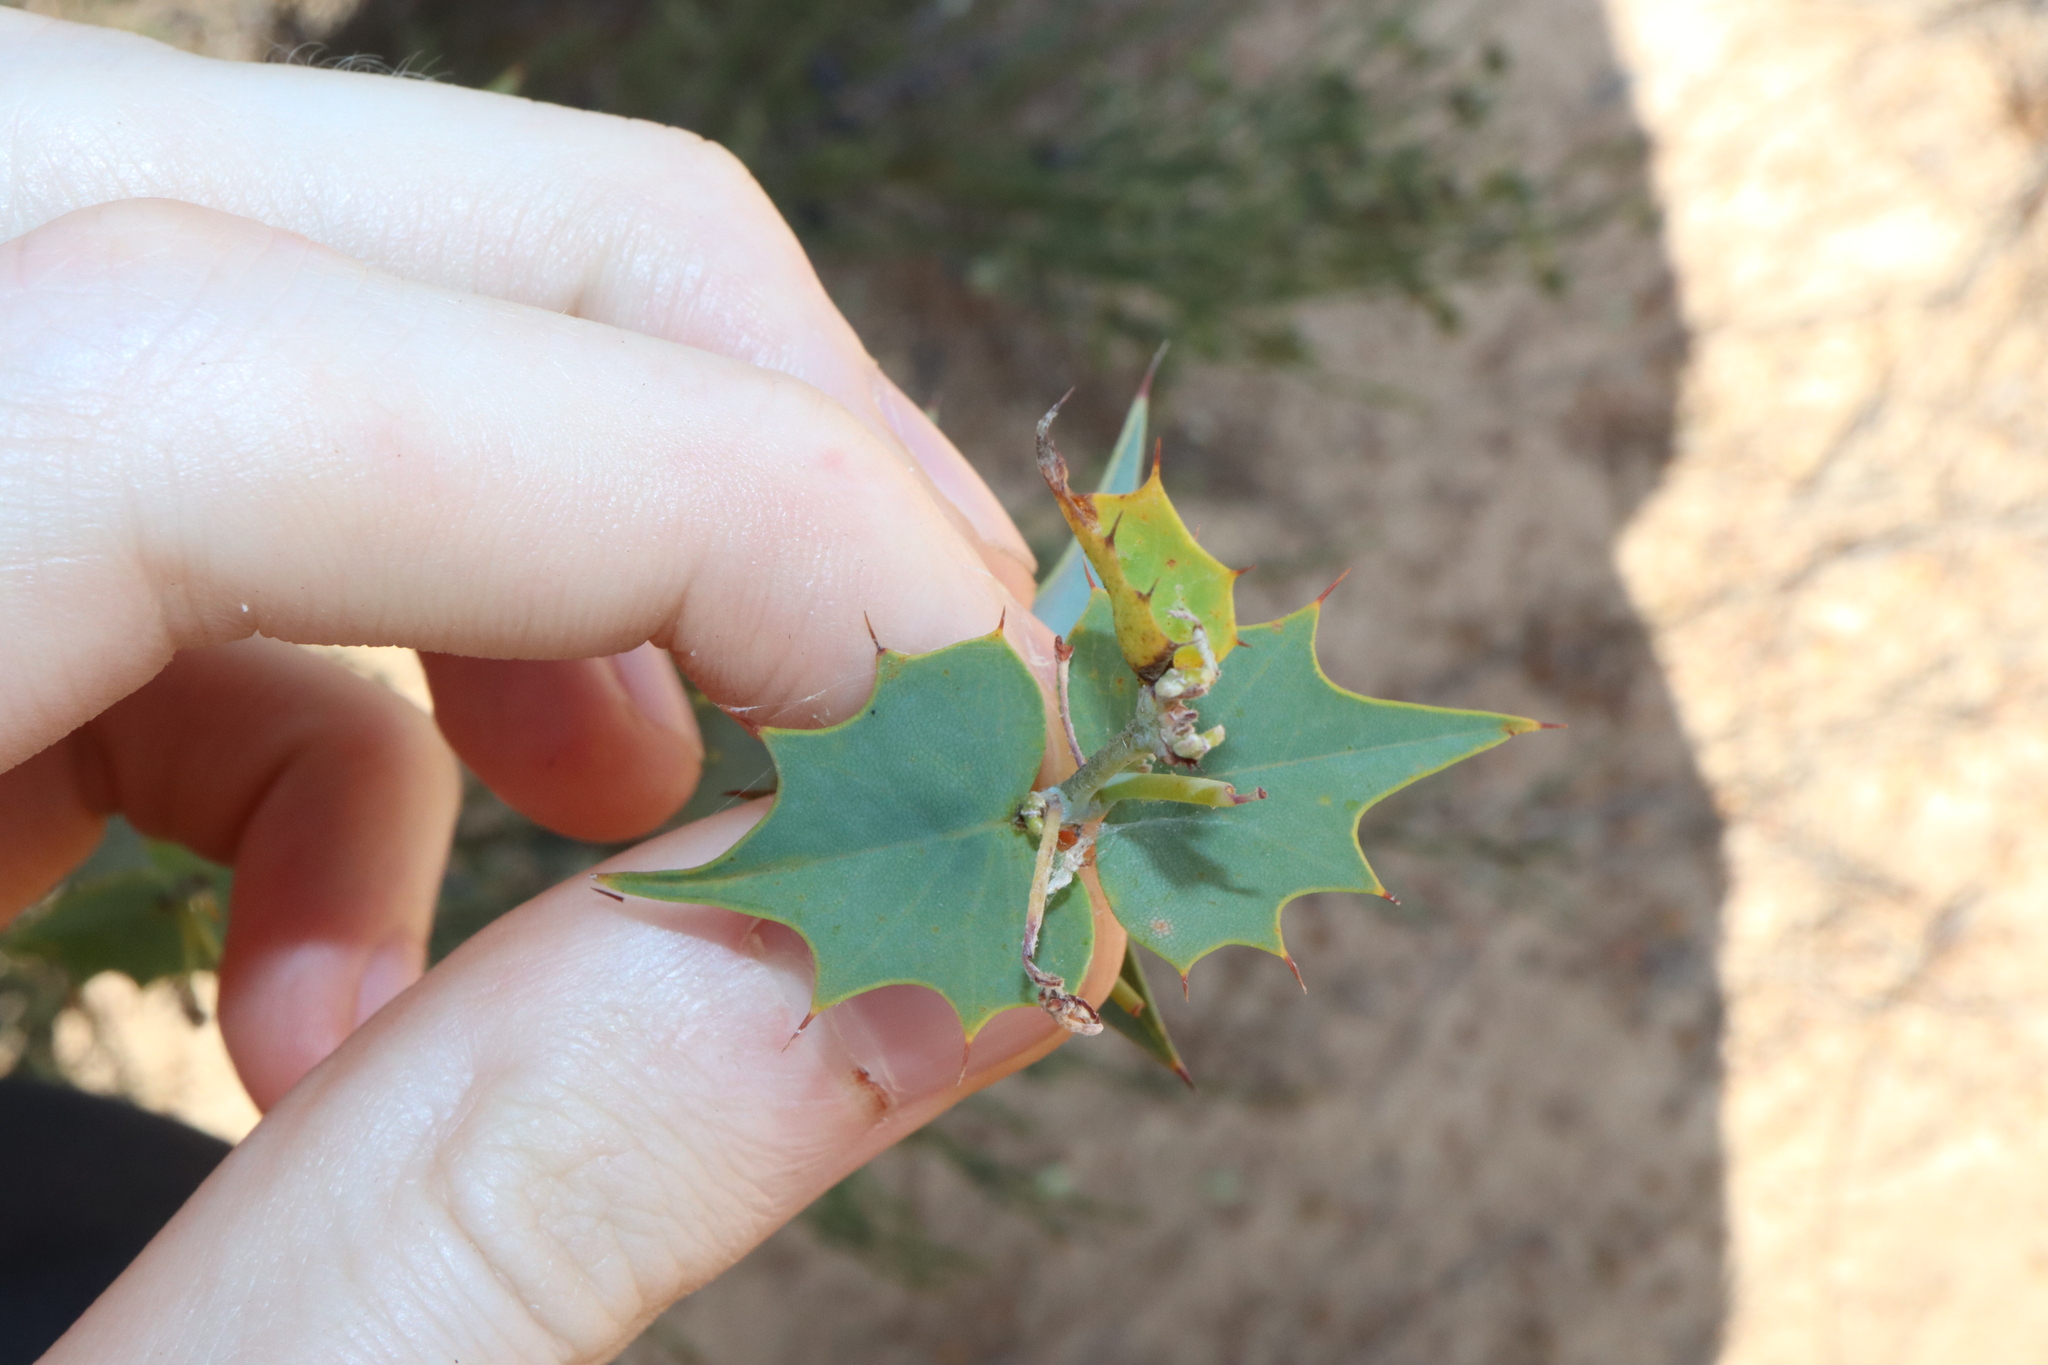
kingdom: Plantae
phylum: Tracheophyta
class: Magnoliopsida
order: Fabales
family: Fabaceae
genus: Gastrolobium
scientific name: Gastrolobium spinosum
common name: Prickly poison
